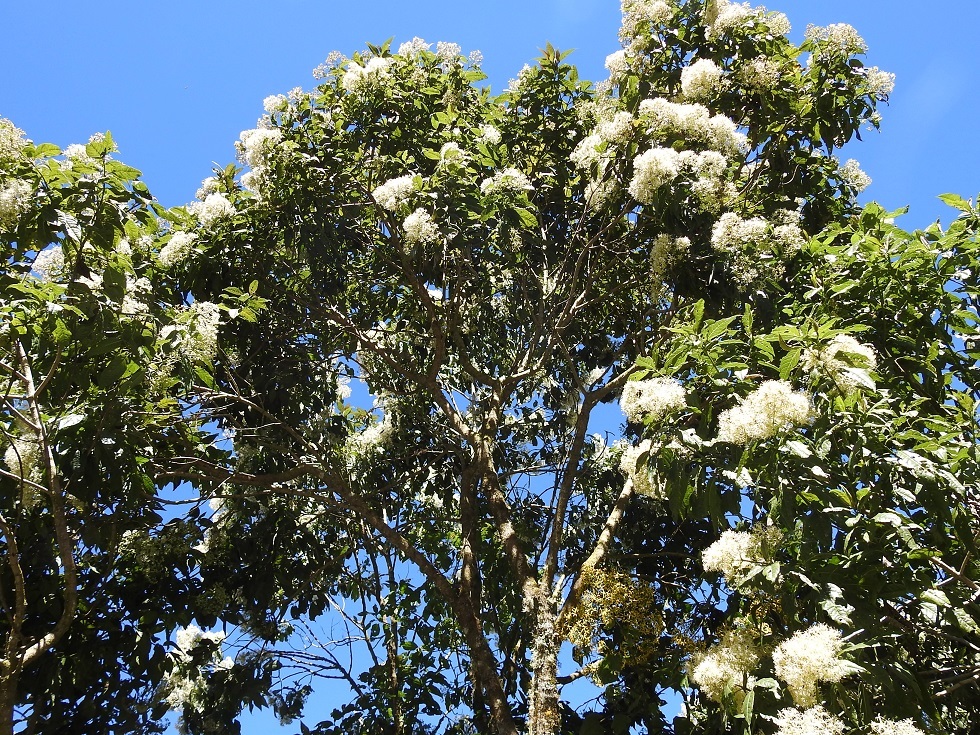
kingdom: Plantae
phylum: Tracheophyta
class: Magnoliopsida
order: Asterales
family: Asteraceae
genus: Critonia
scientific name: Critonia nubigena
